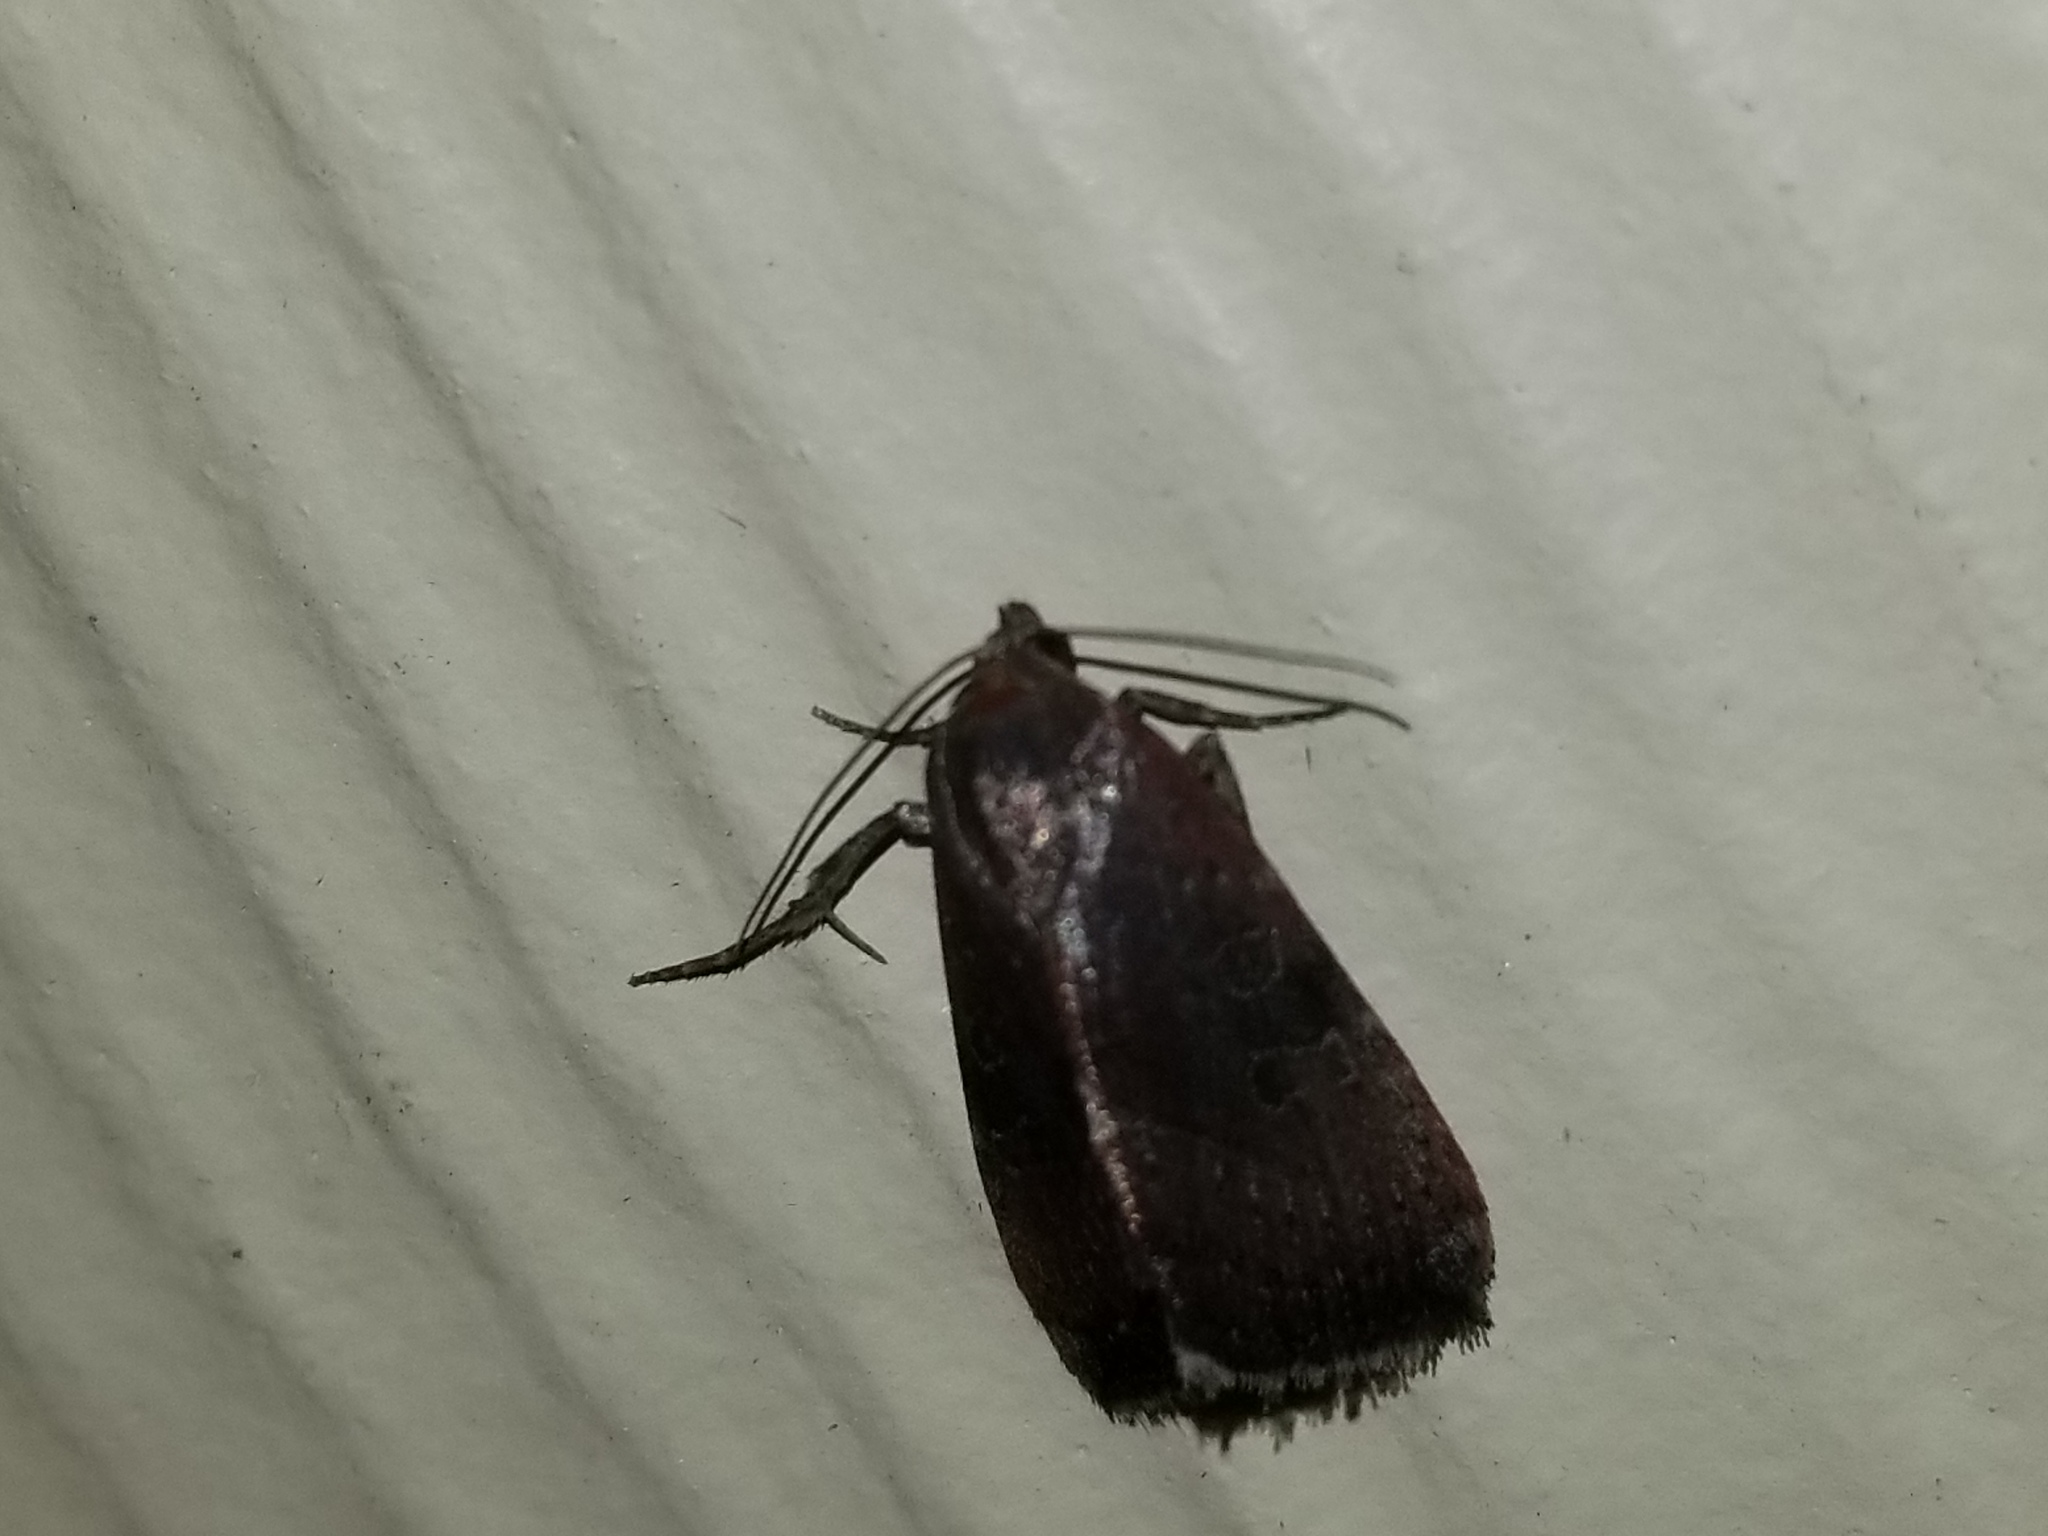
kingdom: Animalia
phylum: Arthropoda
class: Insecta
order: Lepidoptera
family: Noctuidae
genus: Galgula
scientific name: Galgula partita
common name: Wedgeling
